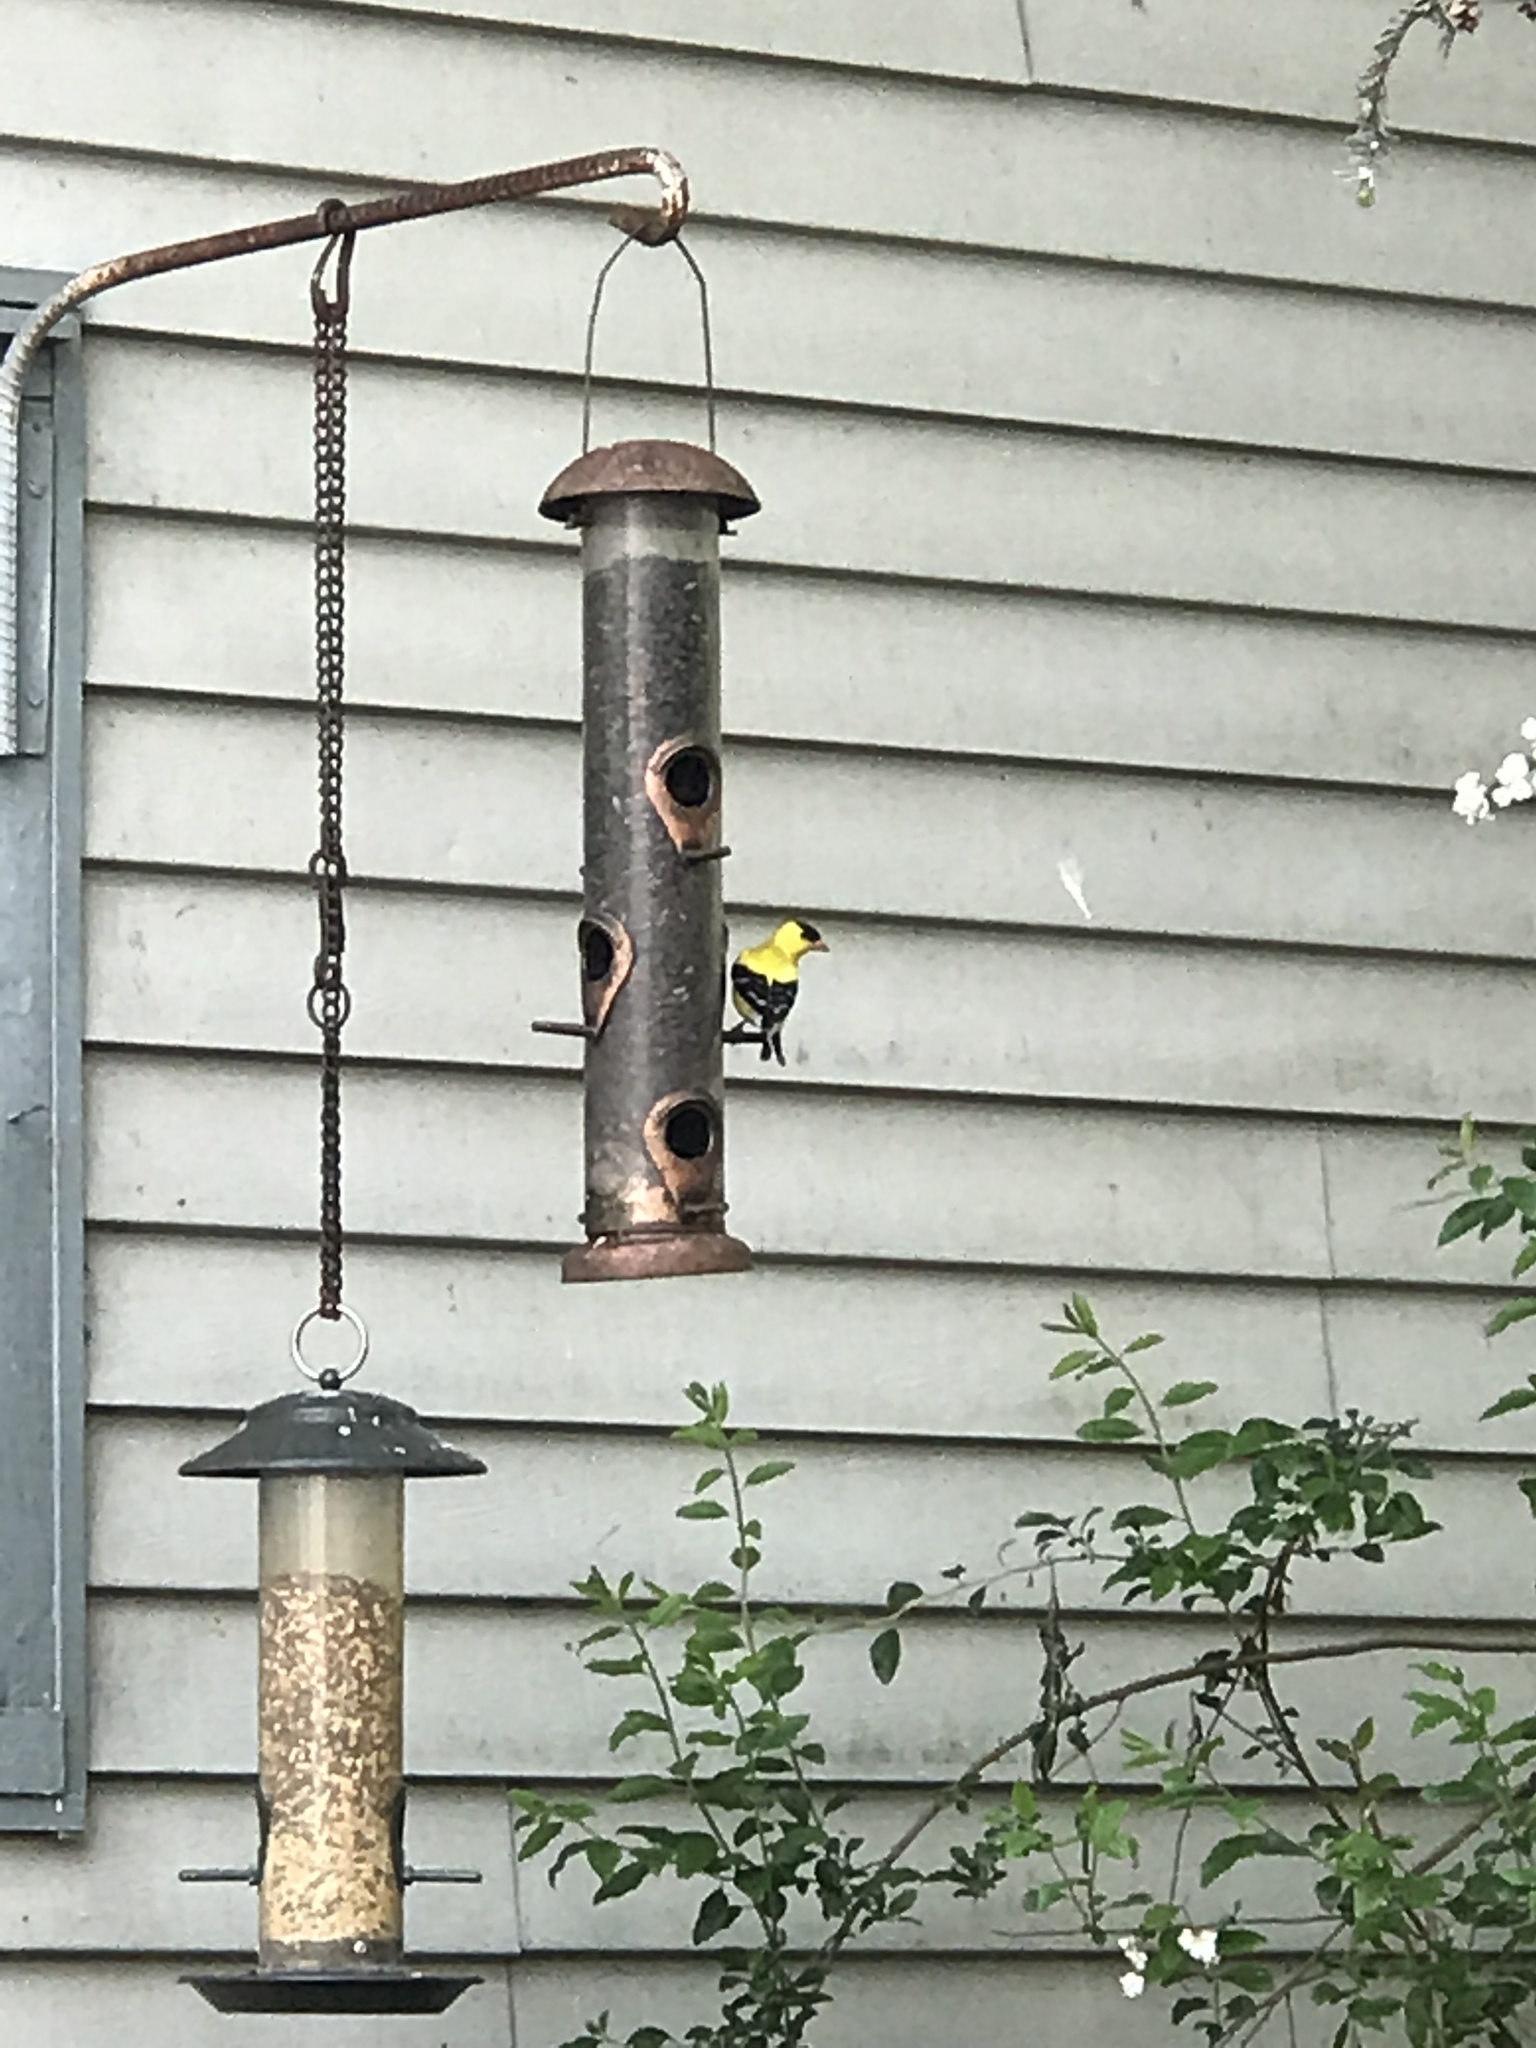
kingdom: Animalia
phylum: Chordata
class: Aves
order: Passeriformes
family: Fringillidae
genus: Spinus
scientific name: Spinus tristis
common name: American goldfinch
